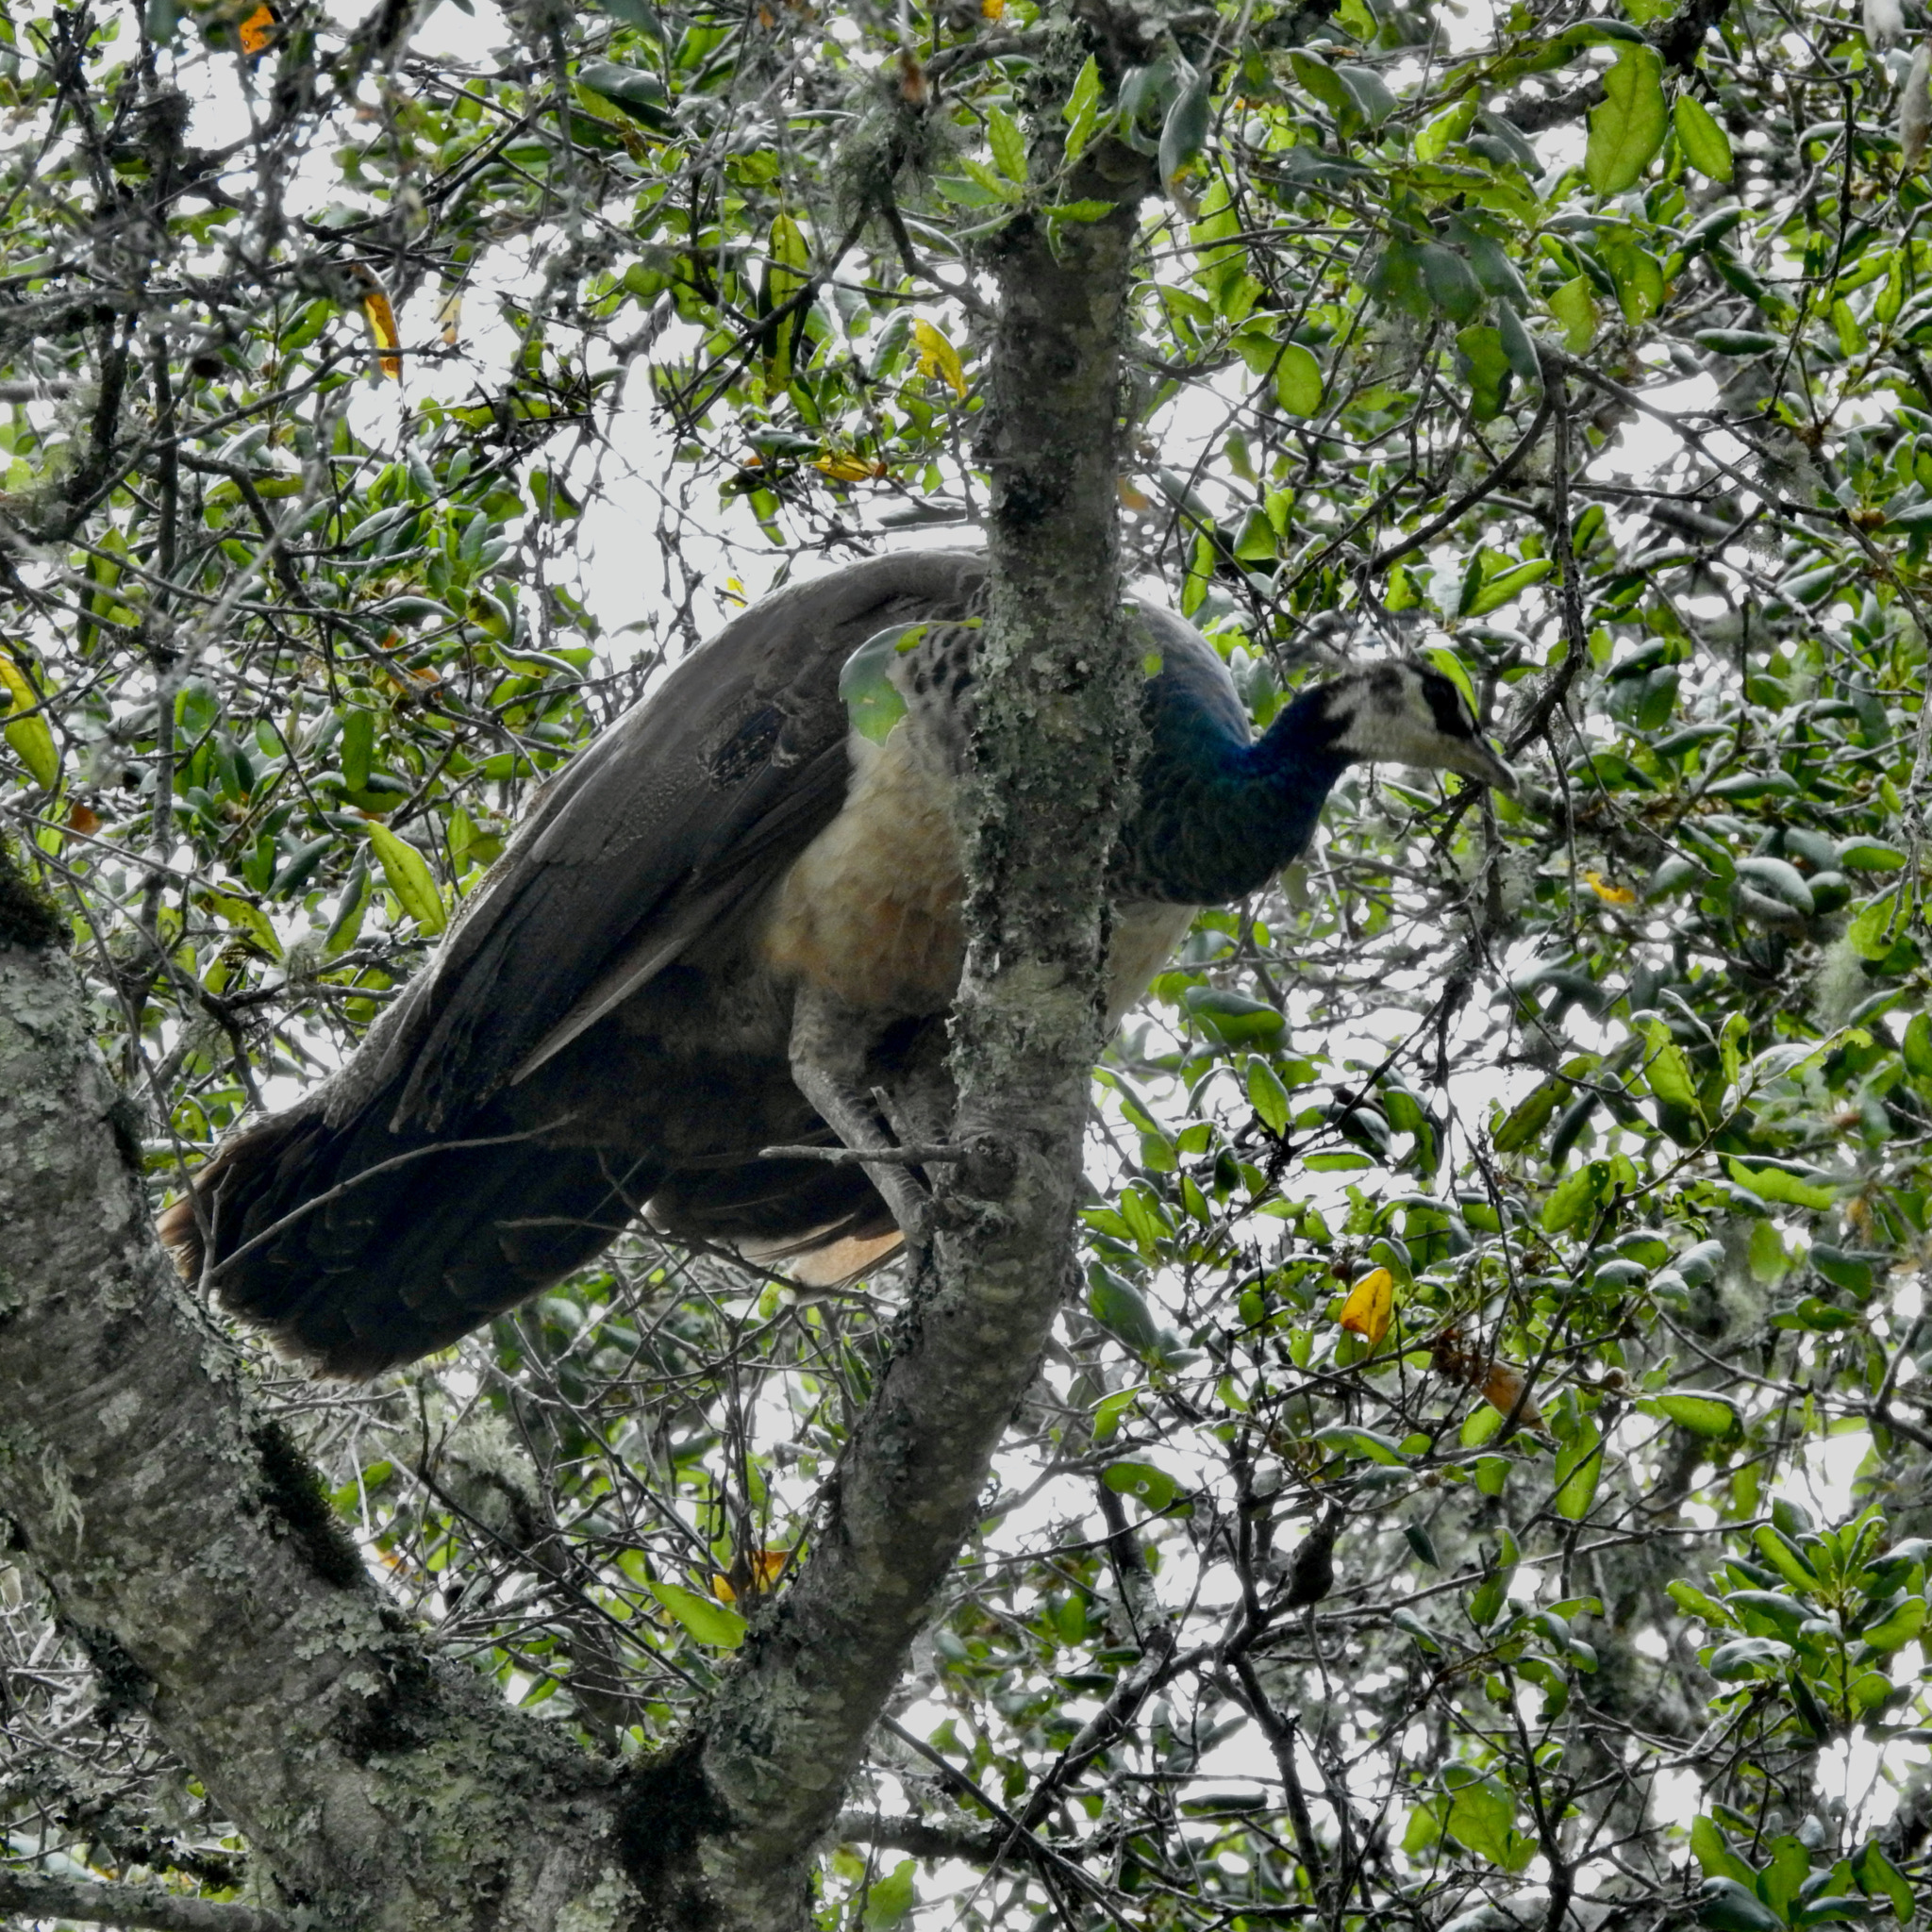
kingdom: Animalia
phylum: Chordata
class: Aves
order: Galliformes
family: Phasianidae
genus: Pavo
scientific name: Pavo cristatus
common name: Indian peafowl
